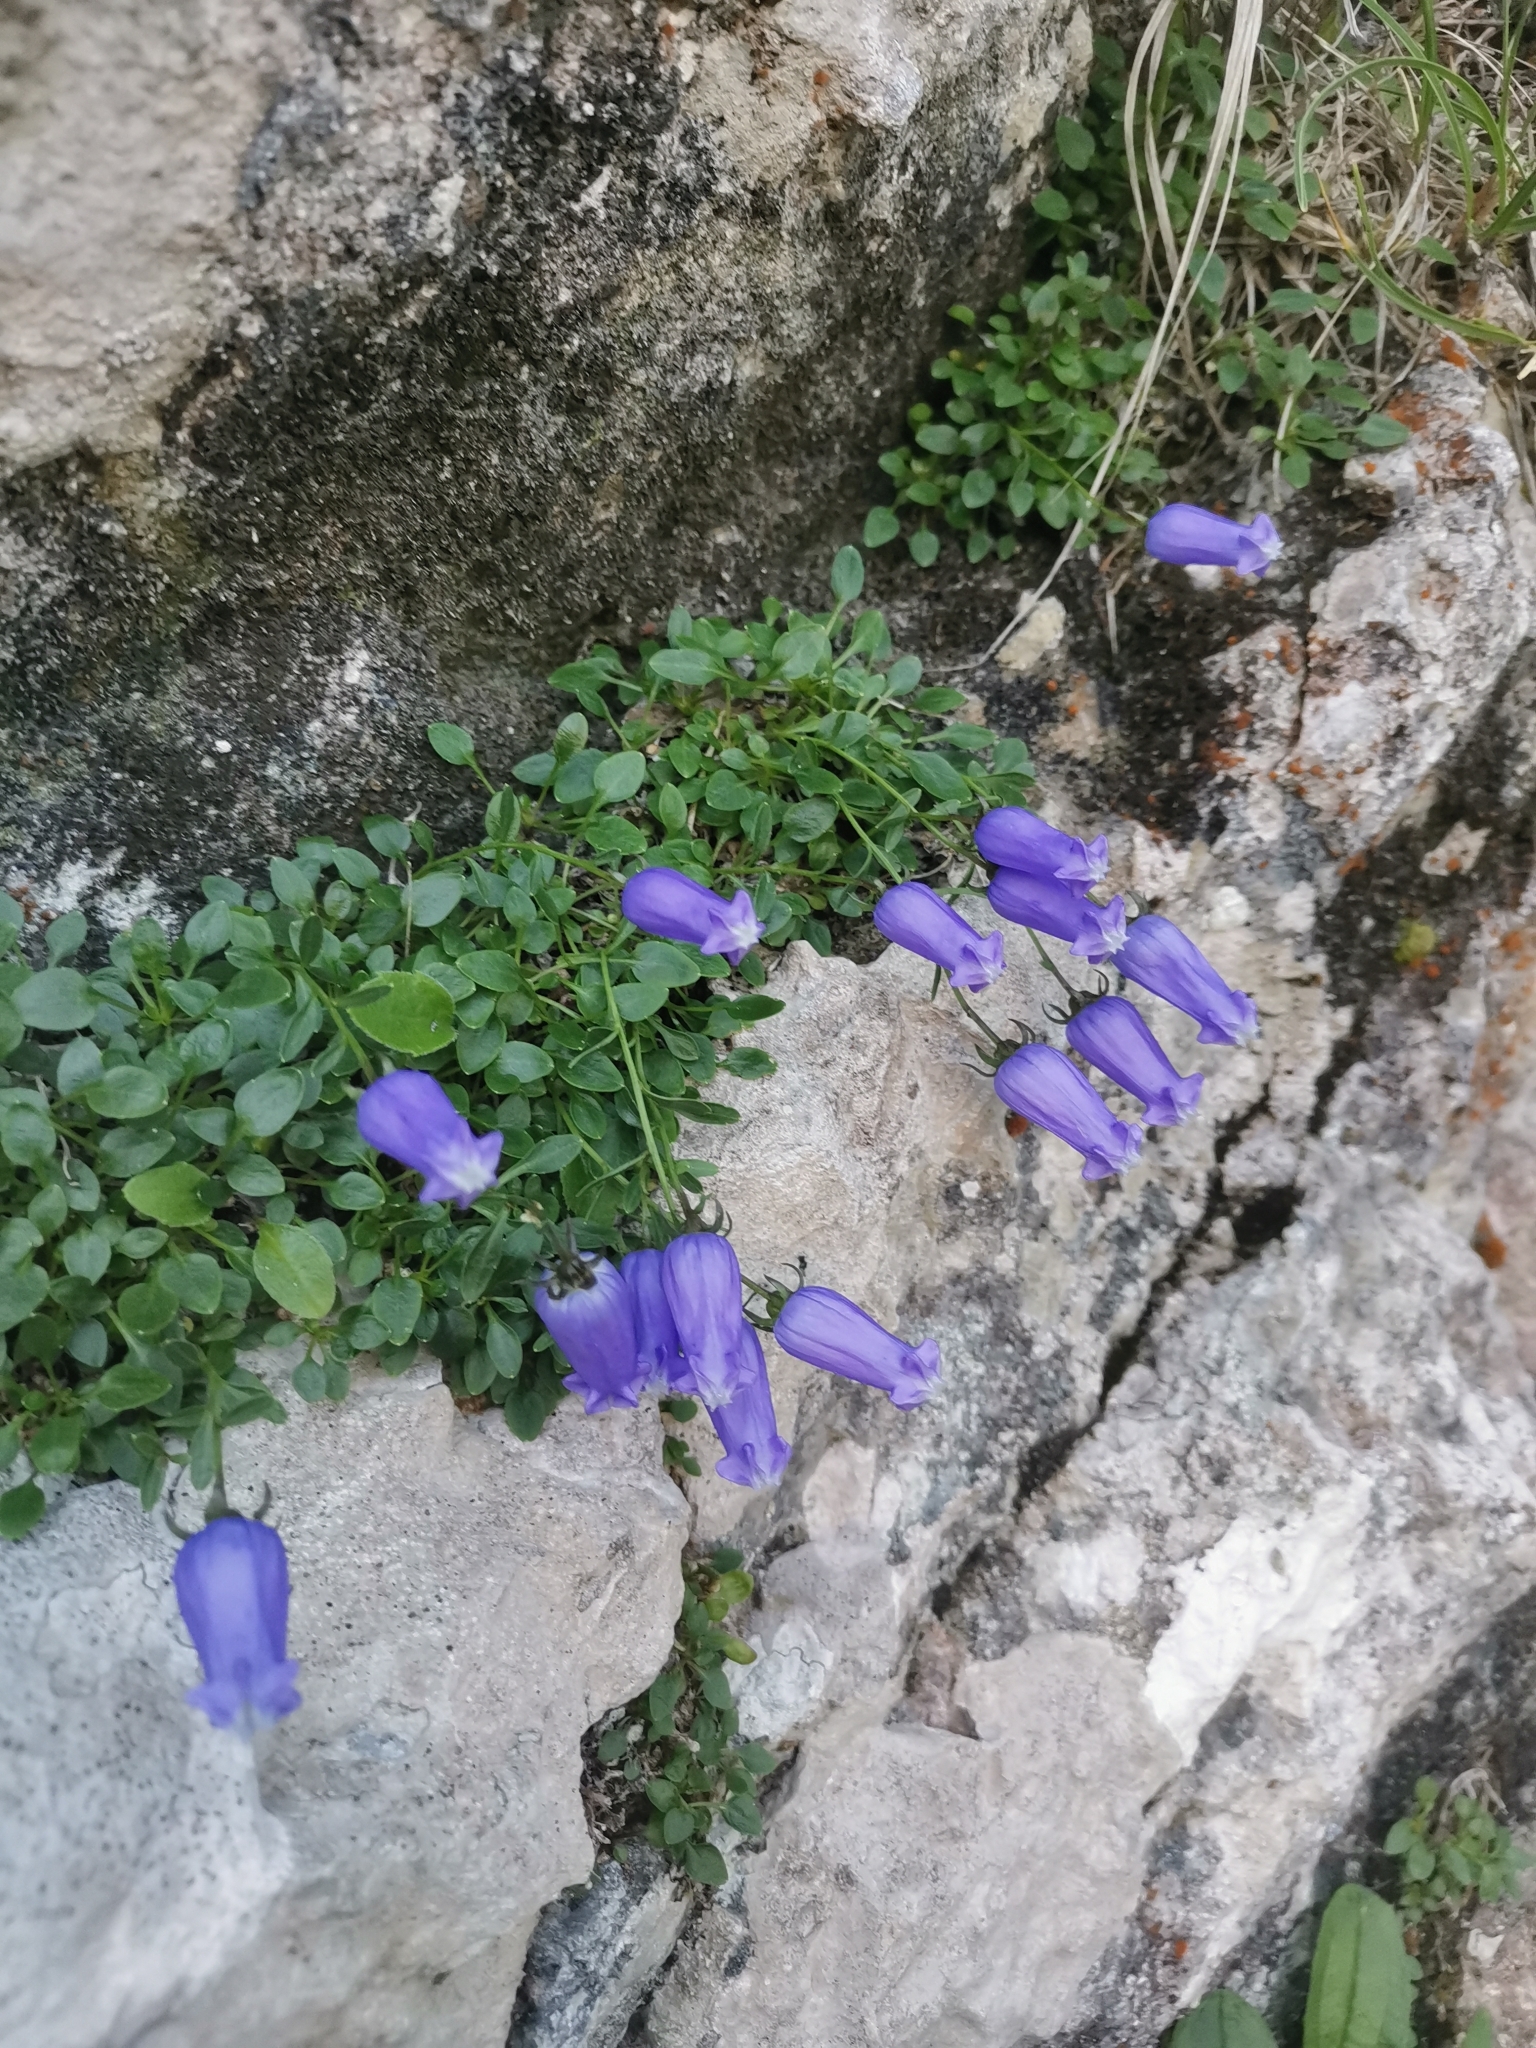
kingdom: Plantae
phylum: Tracheophyta
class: Magnoliopsida
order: Asterales
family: Campanulaceae
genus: Favratia
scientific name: Favratia zoysii
